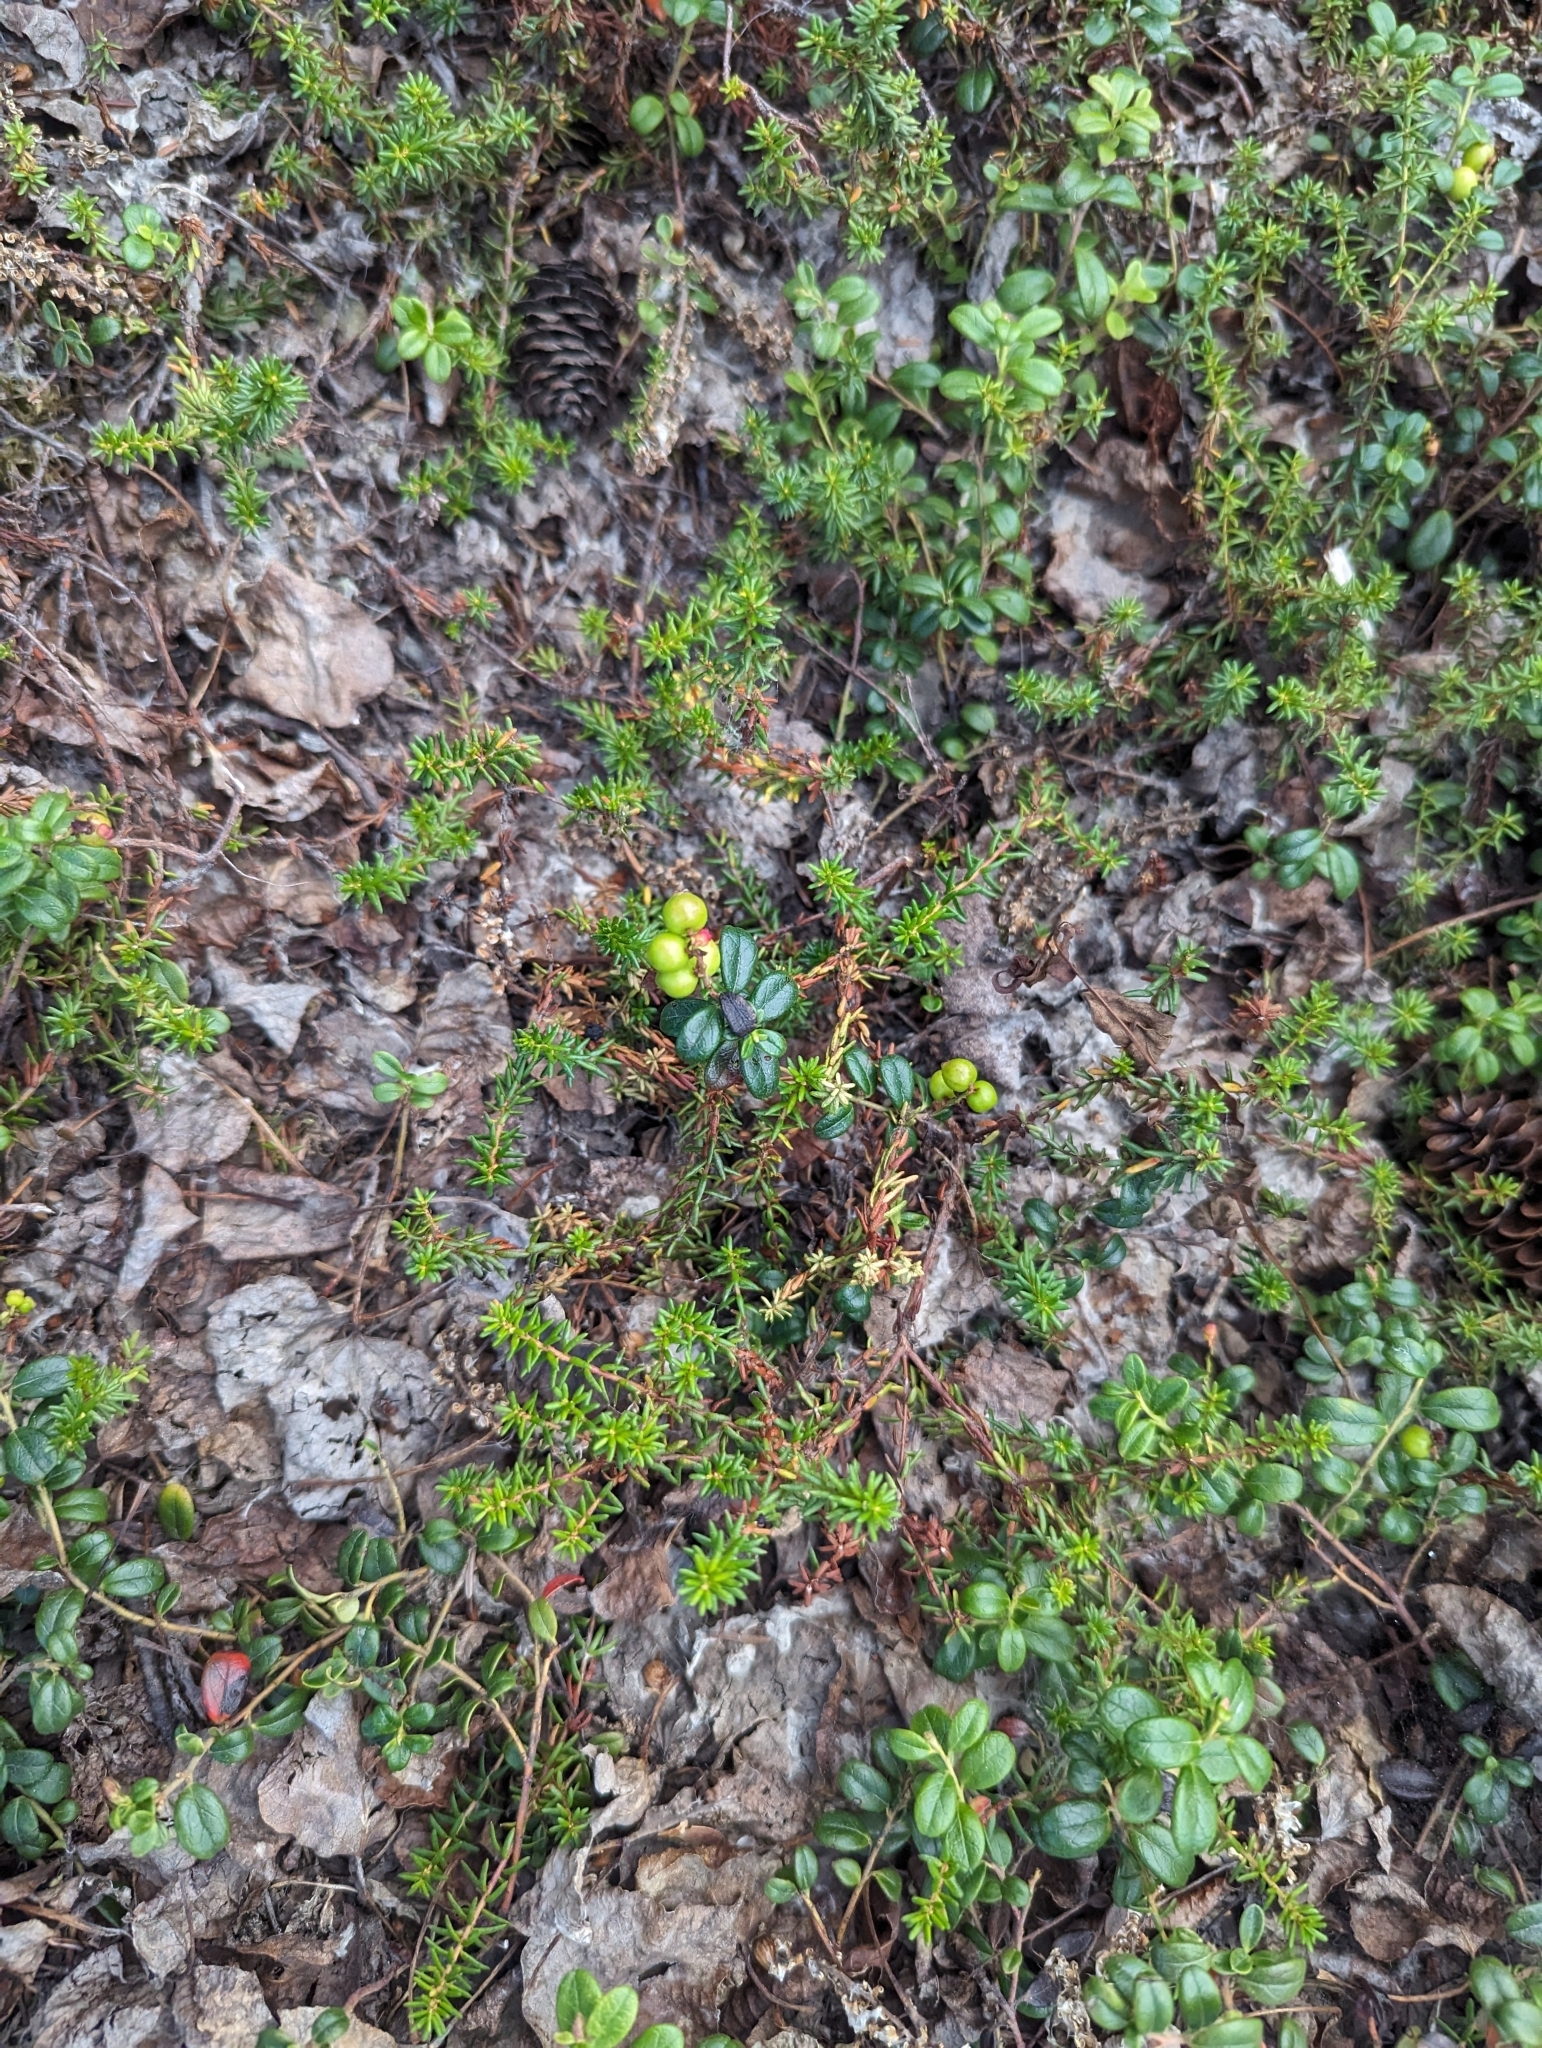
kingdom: Plantae
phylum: Tracheophyta
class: Magnoliopsida
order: Ericales
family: Ericaceae
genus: Vaccinium
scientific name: Vaccinium vitis-idaea
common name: Cowberry
